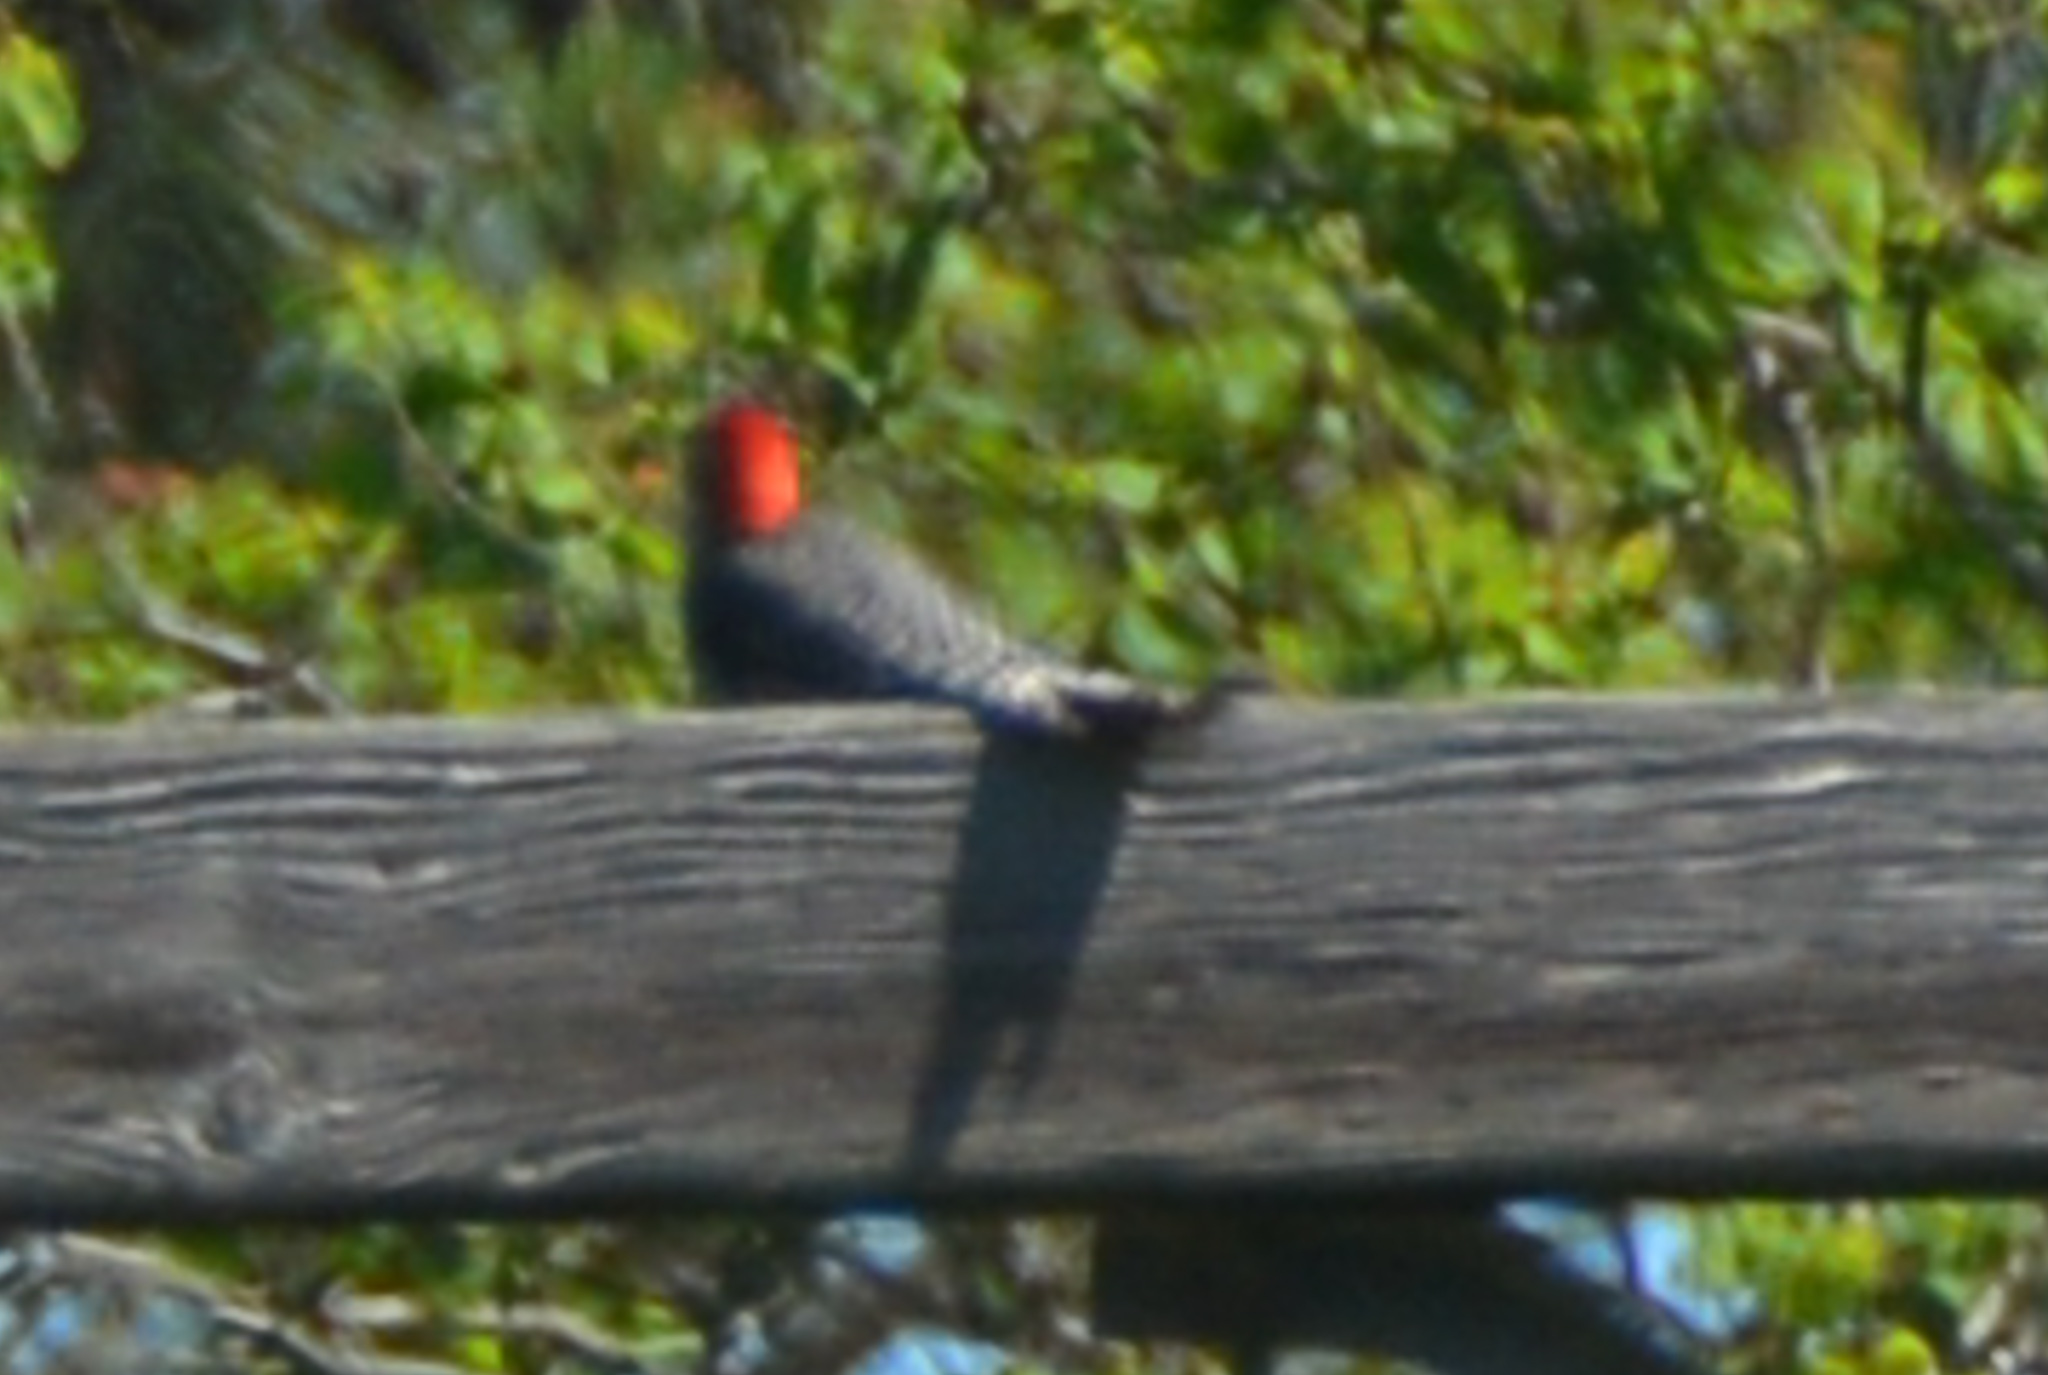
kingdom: Animalia
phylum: Chordata
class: Aves
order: Piciformes
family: Picidae
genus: Melanerpes
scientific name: Melanerpes carolinus
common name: Red-bellied woodpecker
